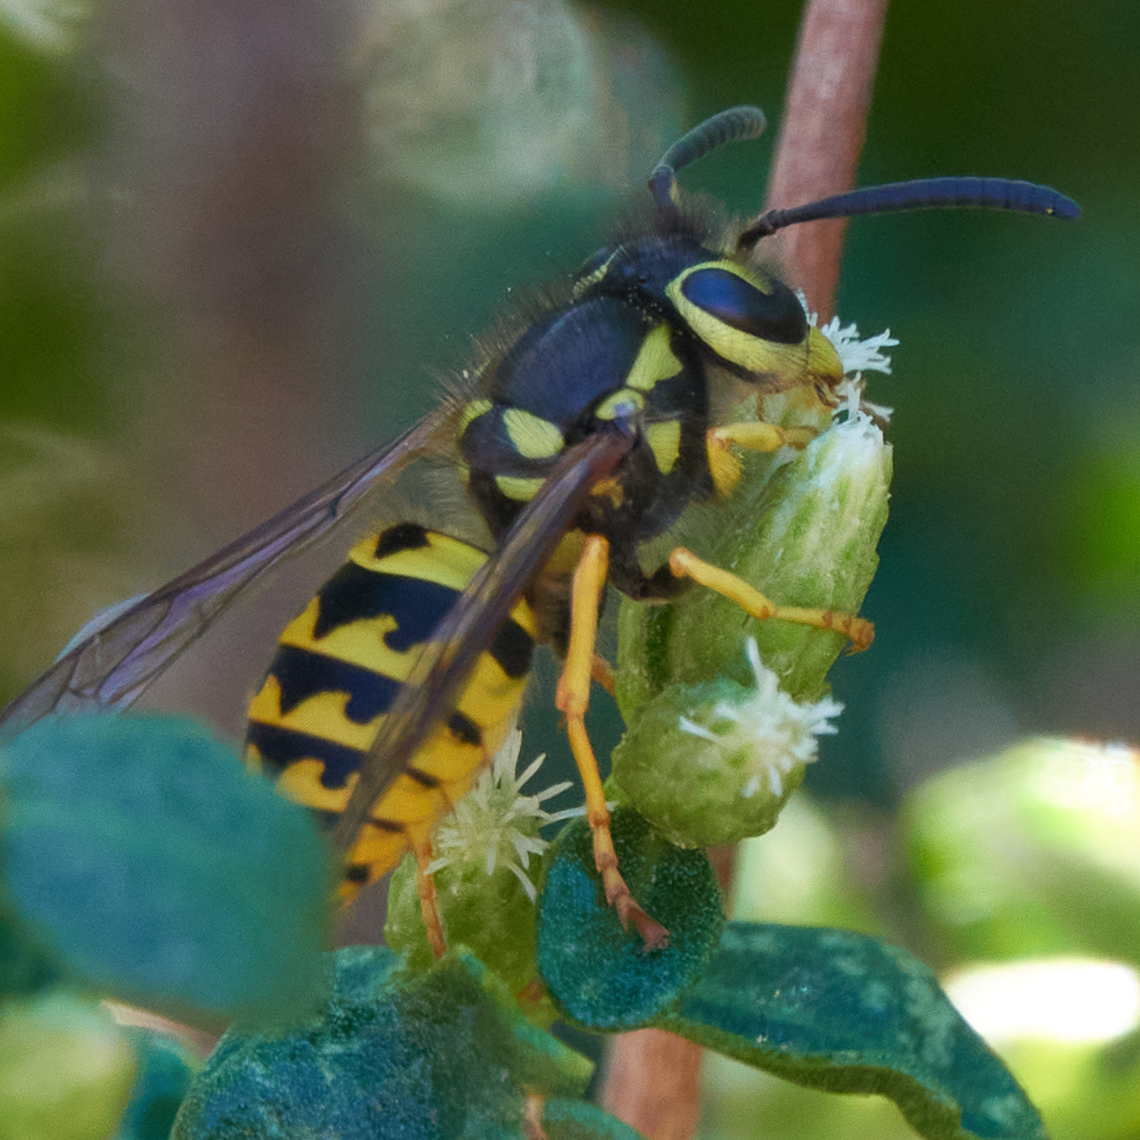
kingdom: Animalia
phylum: Arthropoda
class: Insecta
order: Hymenoptera
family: Vespidae
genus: Vespula
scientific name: Vespula pensylvanica
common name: Western yellowjacket
